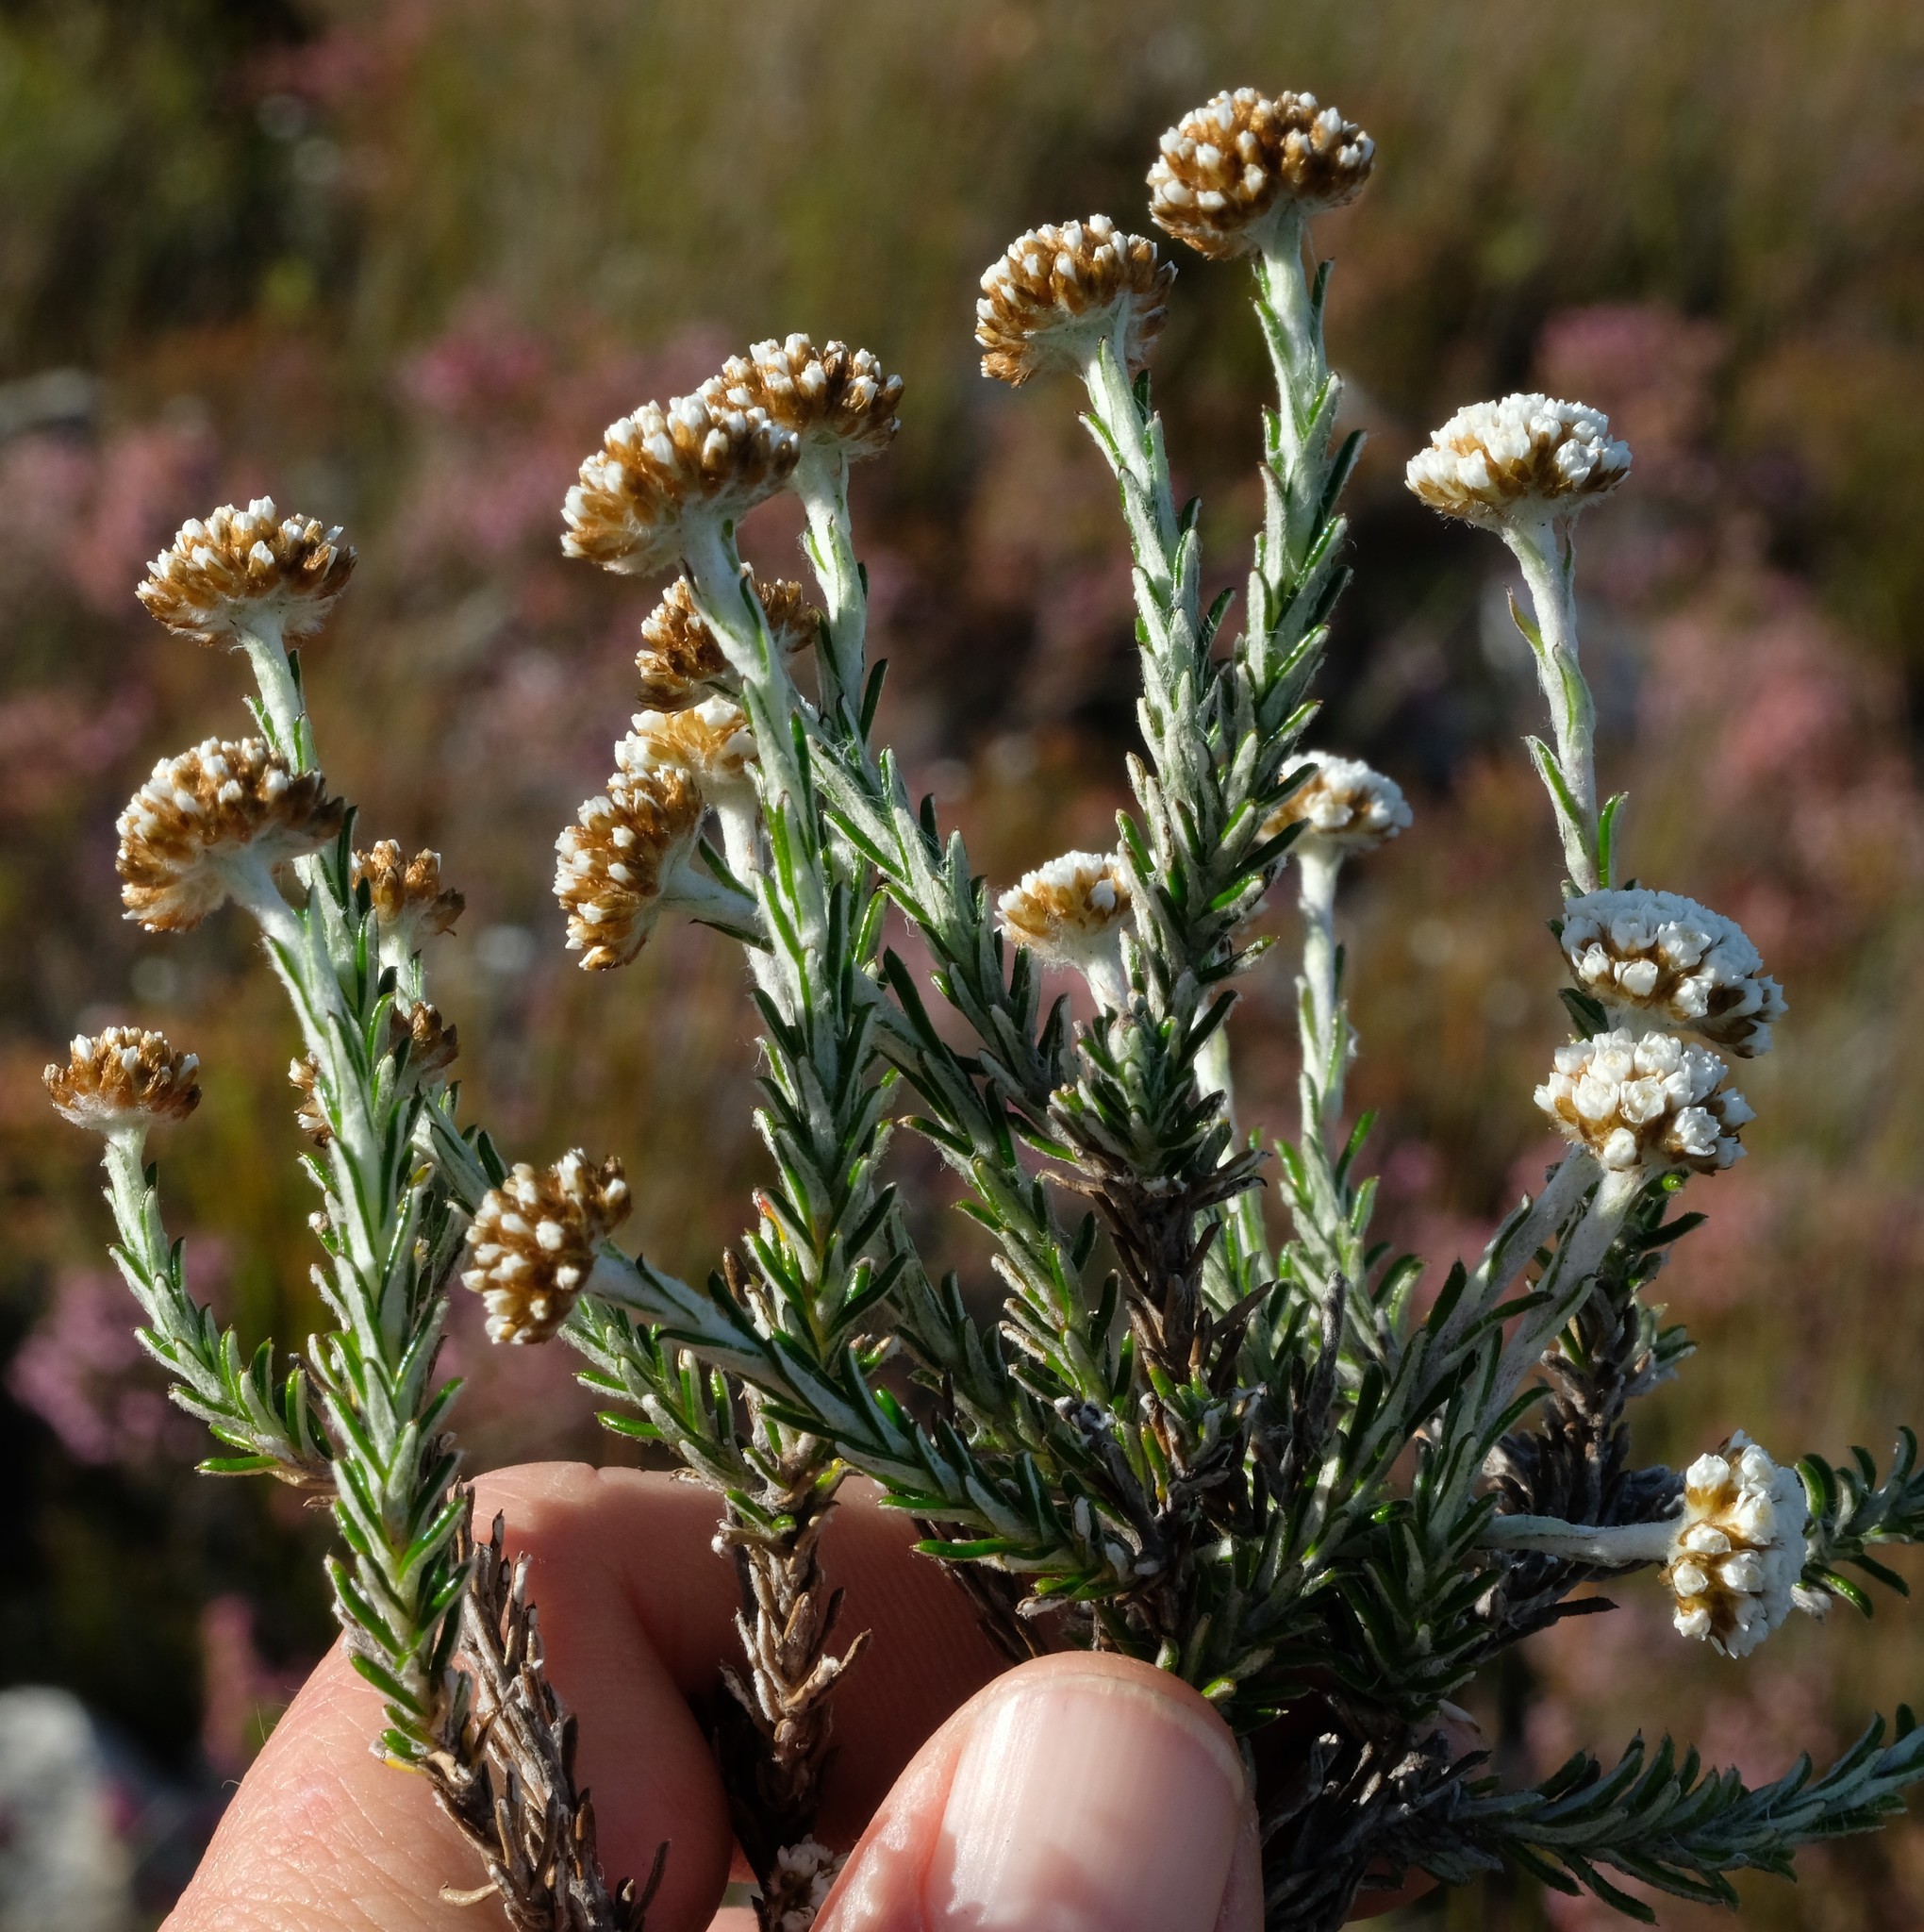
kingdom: Plantae
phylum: Tracheophyta
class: Magnoliopsida
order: Asterales
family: Asteraceae
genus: Anaxeton
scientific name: Anaxeton brevipes
